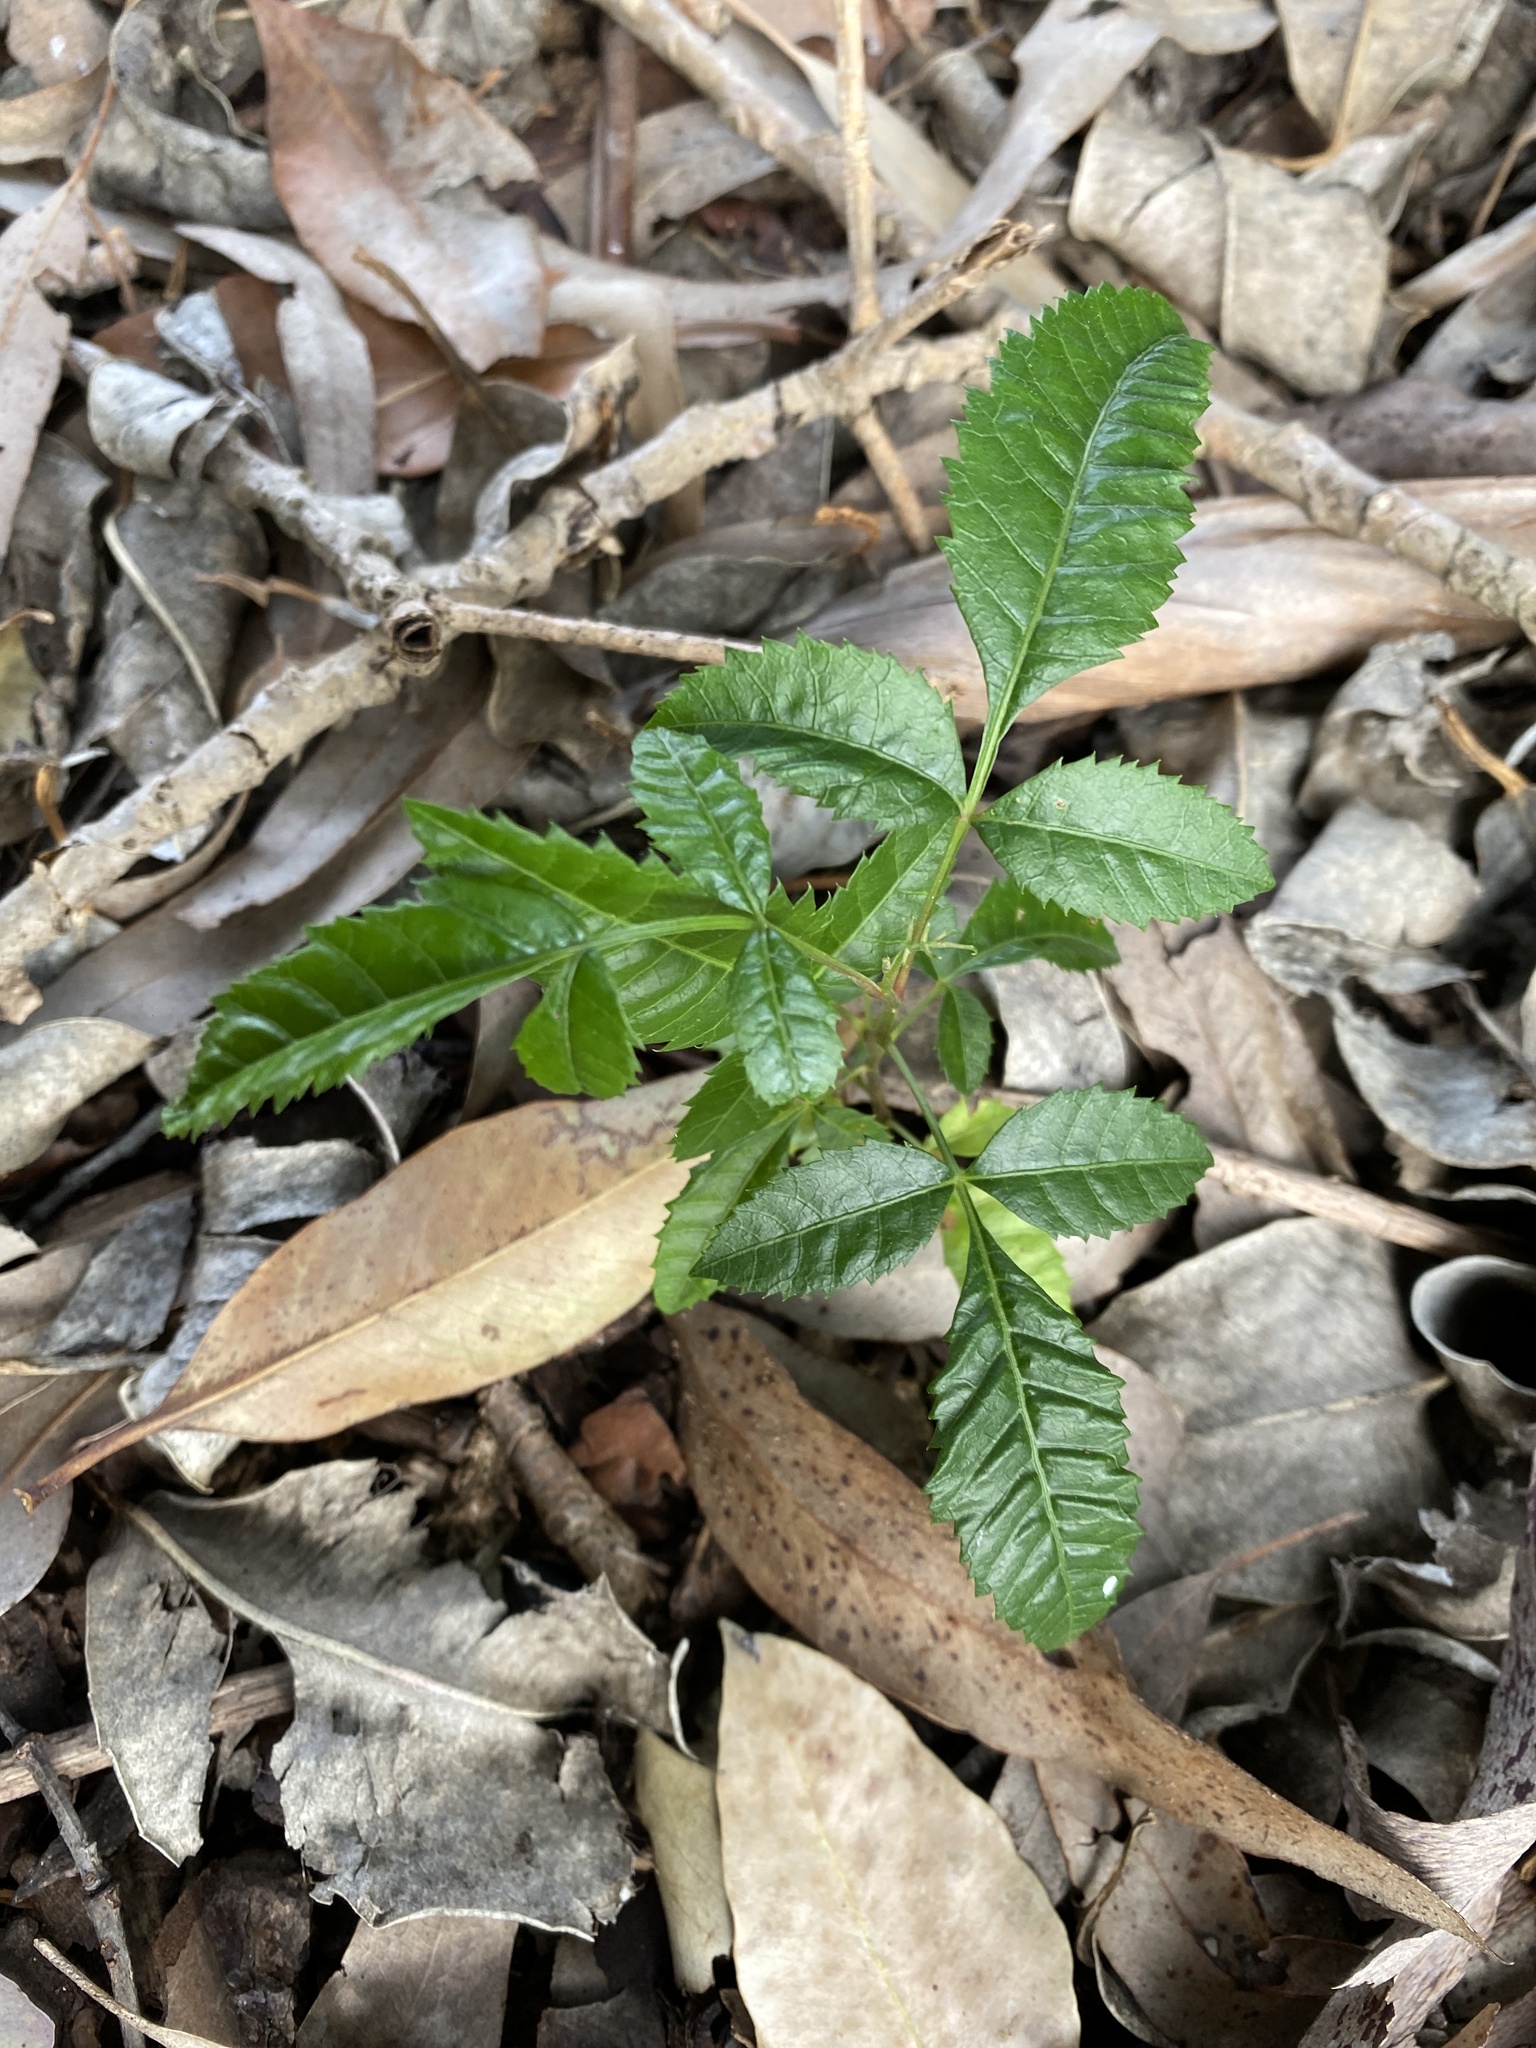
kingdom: Plantae
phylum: Tracheophyta
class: Magnoliopsida
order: Sapindales
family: Anacardiaceae
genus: Schinus
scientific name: Schinus terebinthifolia
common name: Brazilian peppertree
